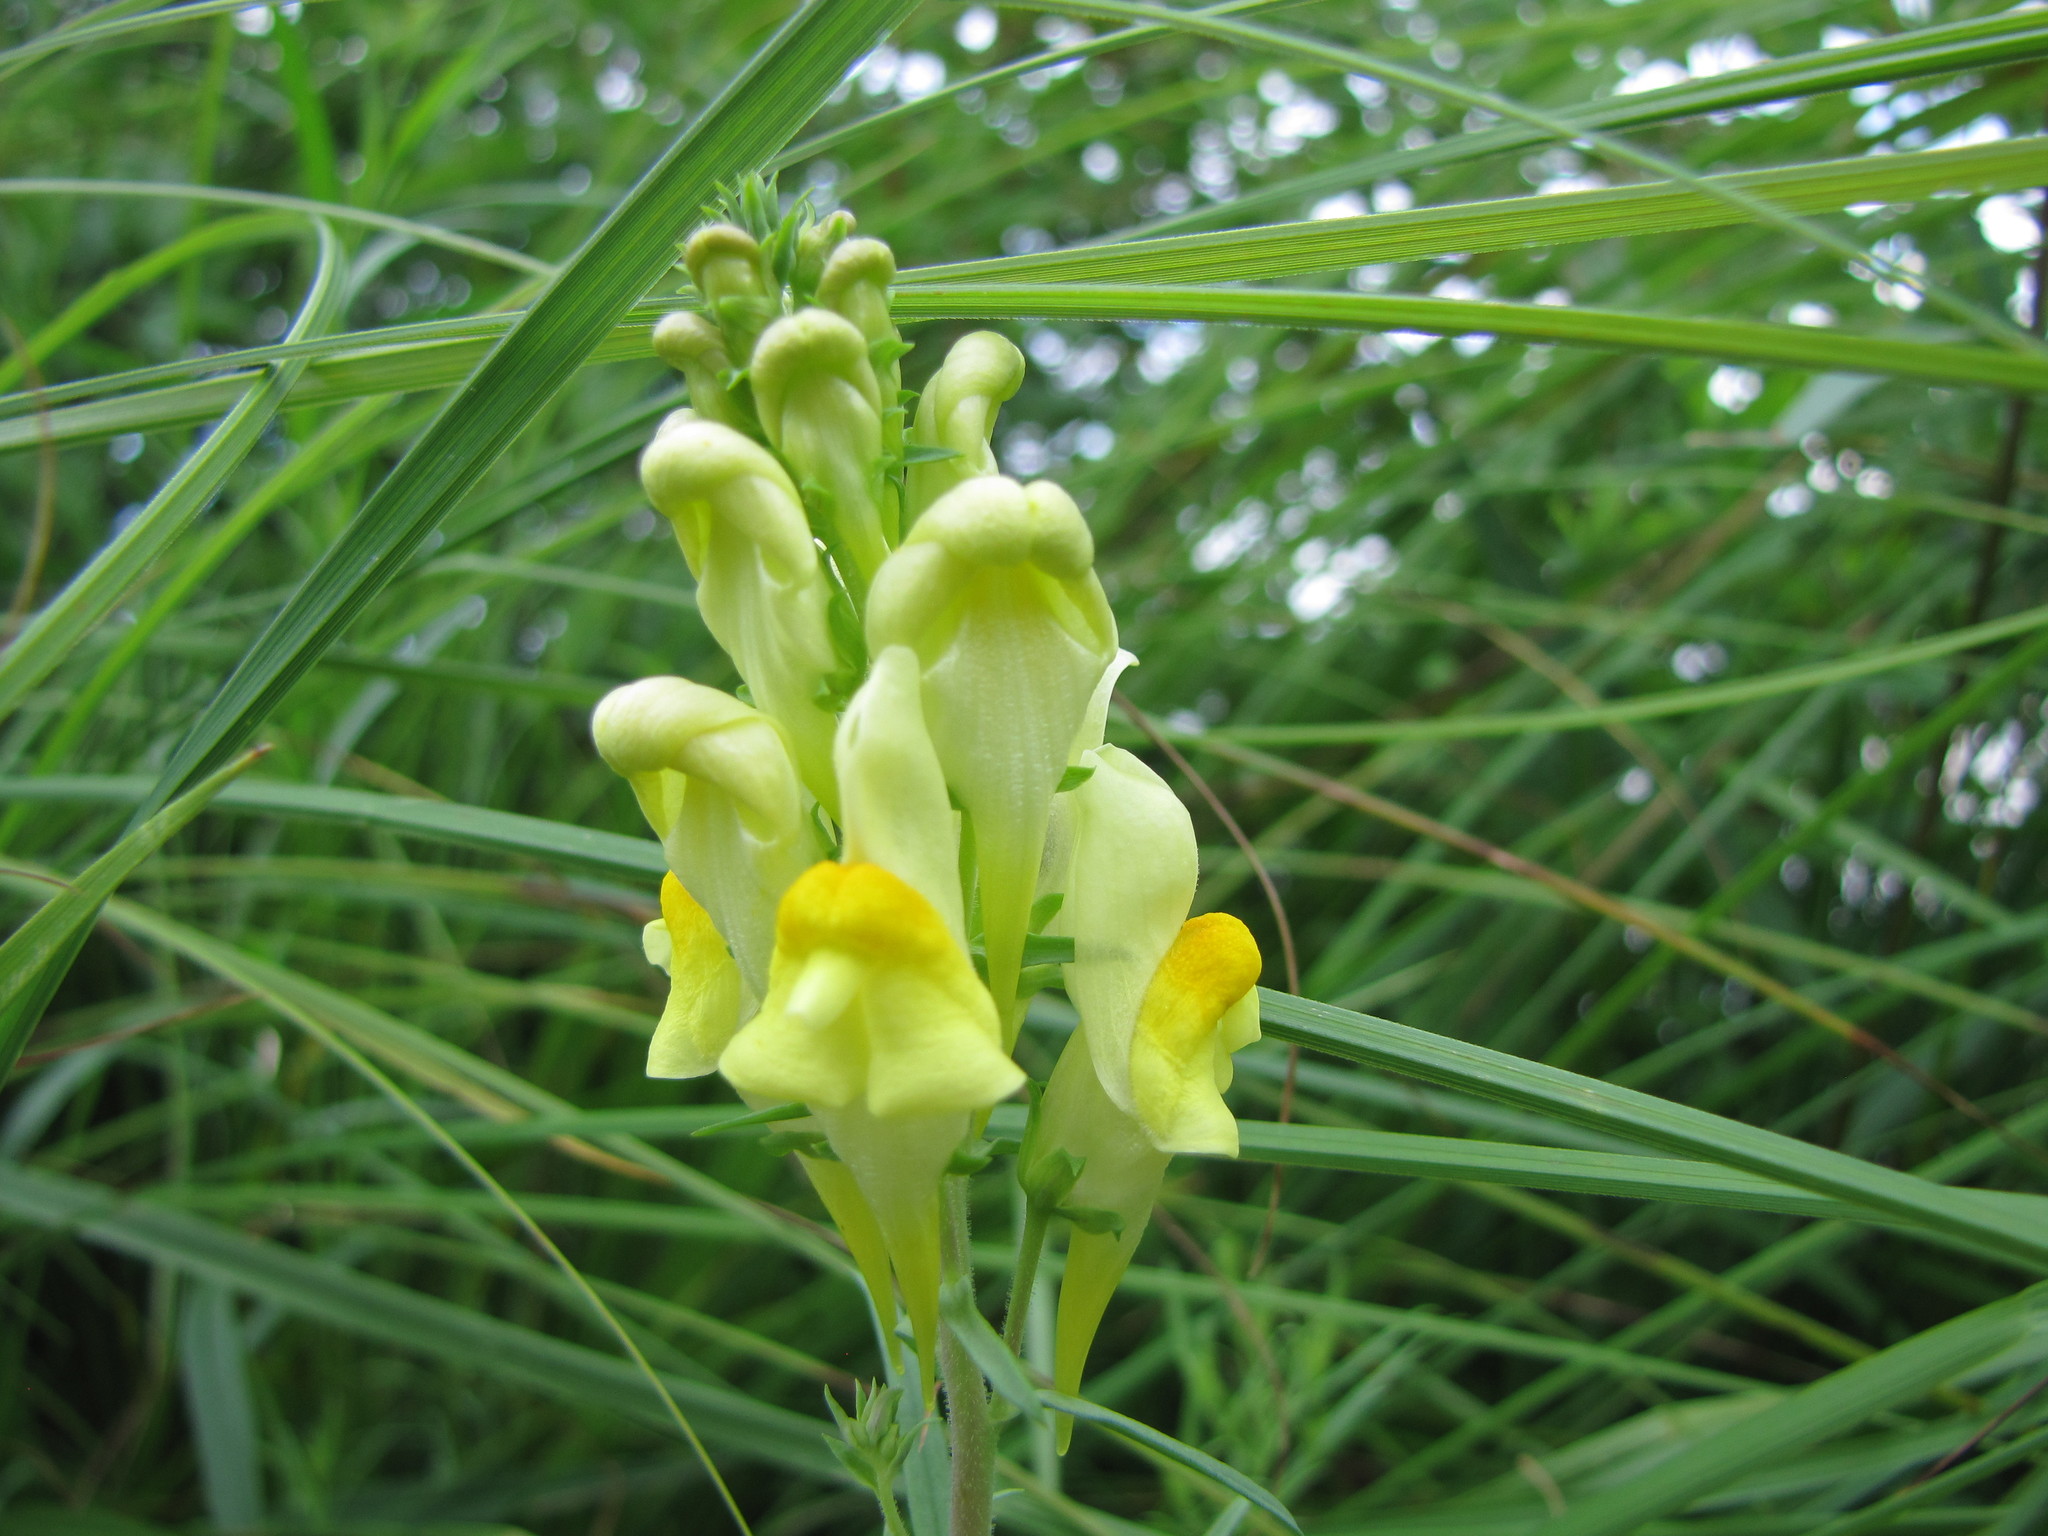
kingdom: Plantae
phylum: Tracheophyta
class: Magnoliopsida
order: Lamiales
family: Plantaginaceae
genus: Linaria
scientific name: Linaria vulgaris
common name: Butter and eggs
